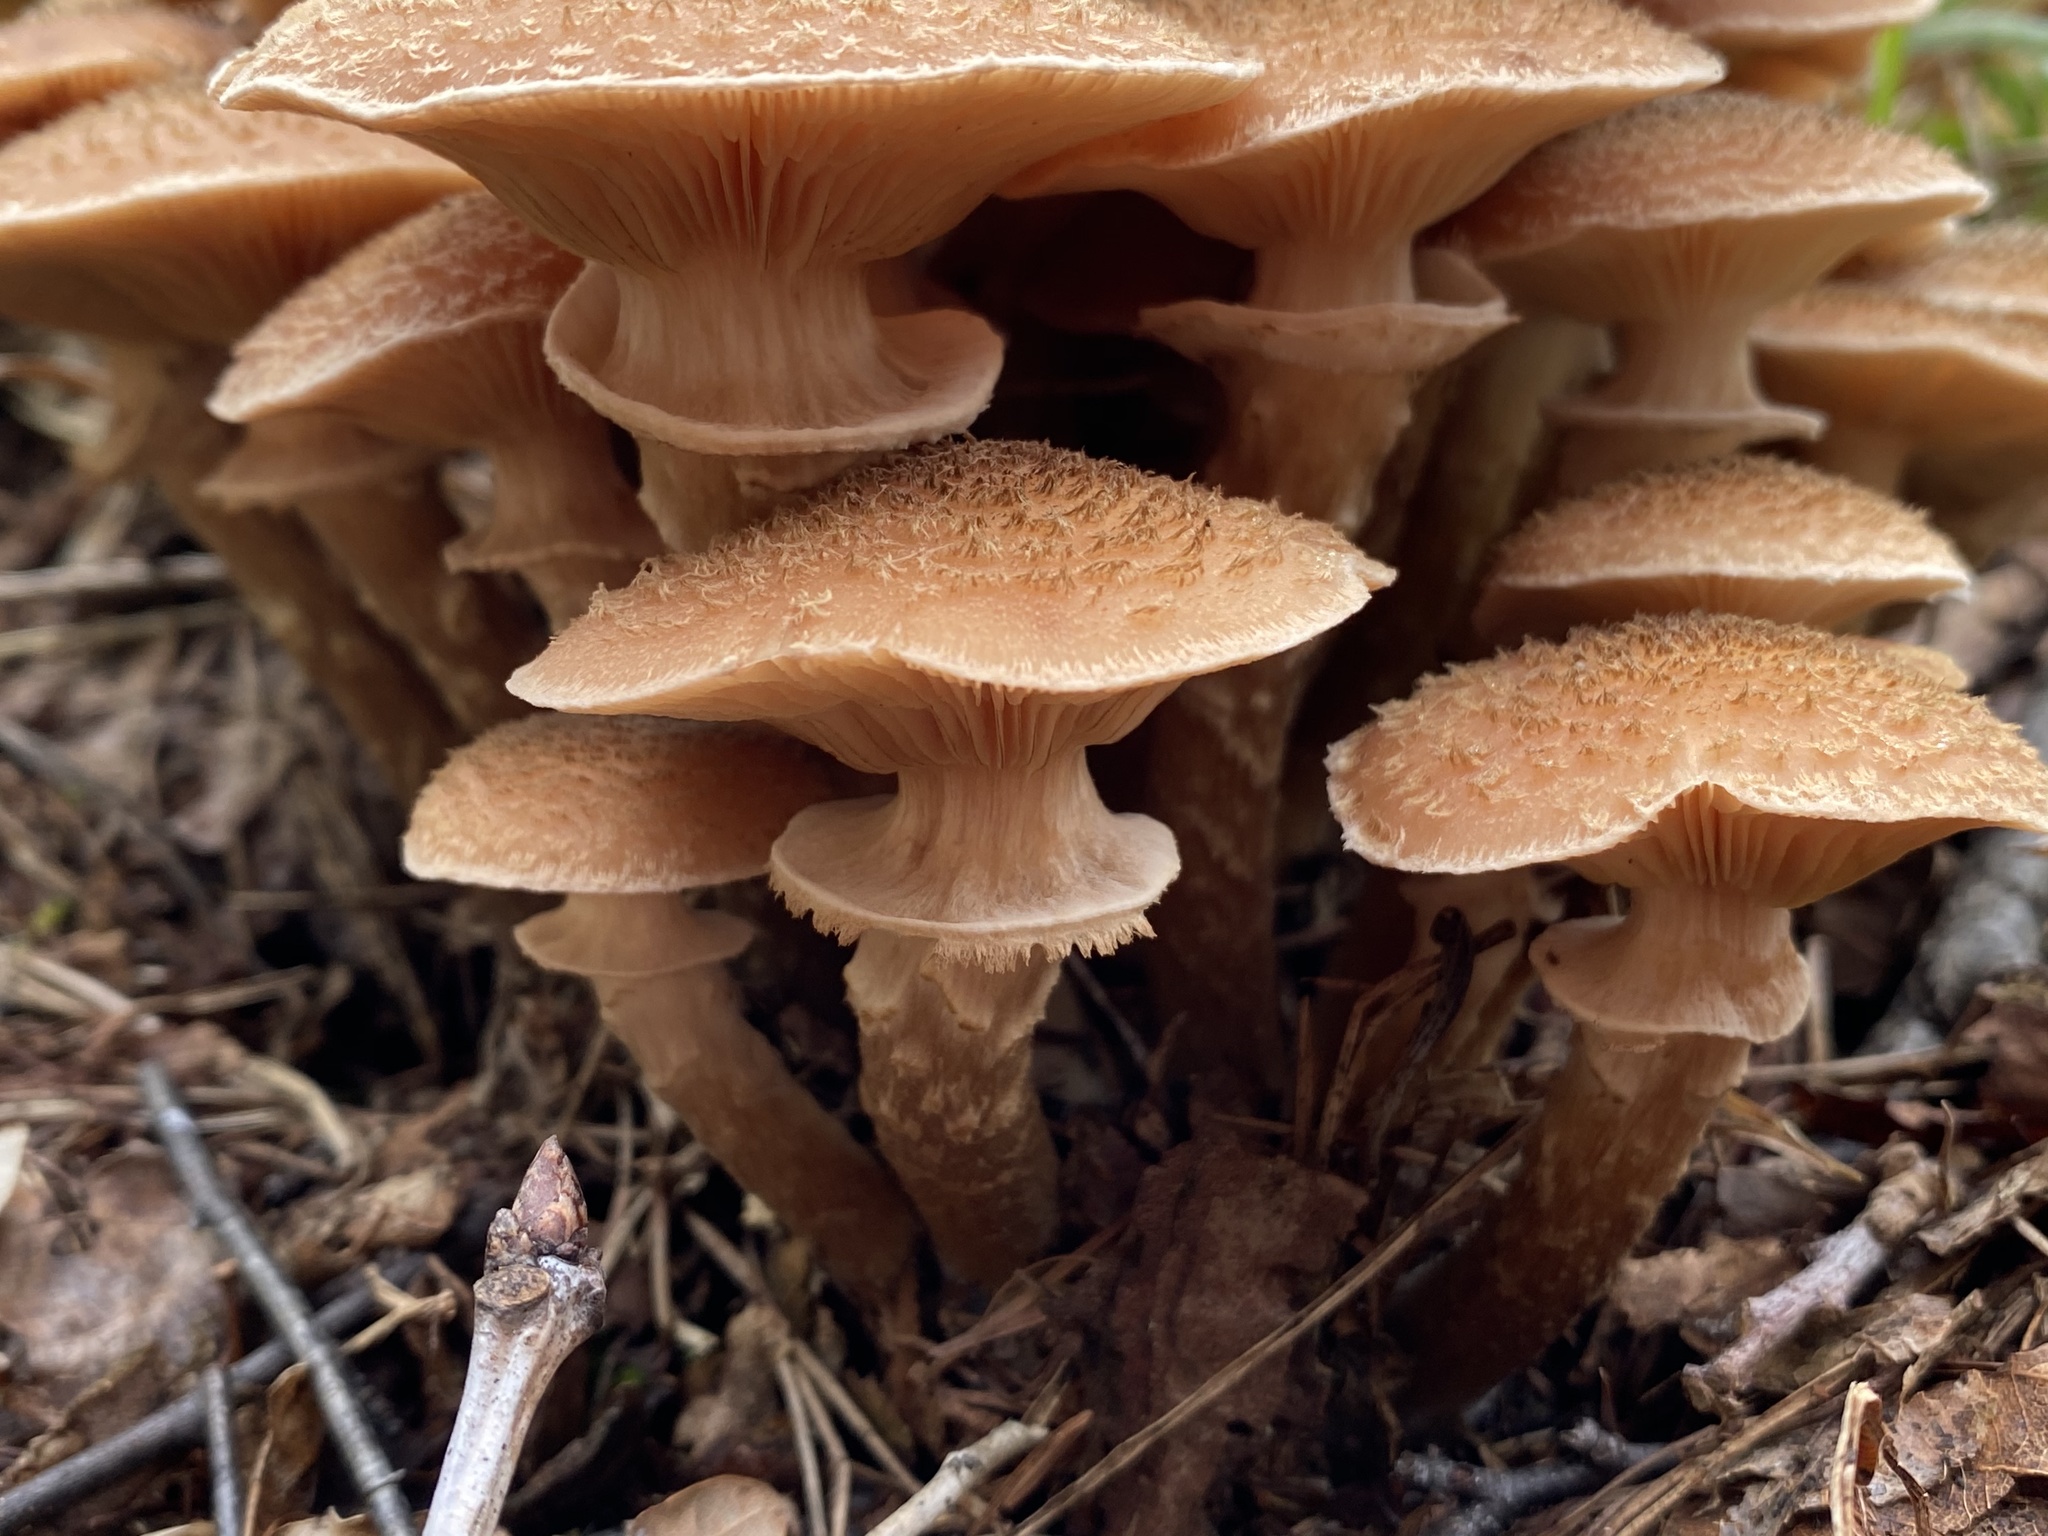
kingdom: Fungi
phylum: Basidiomycota
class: Agaricomycetes
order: Agaricales
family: Physalacriaceae
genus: Armillaria
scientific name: Armillaria ostoyae
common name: Dark honey fungus
